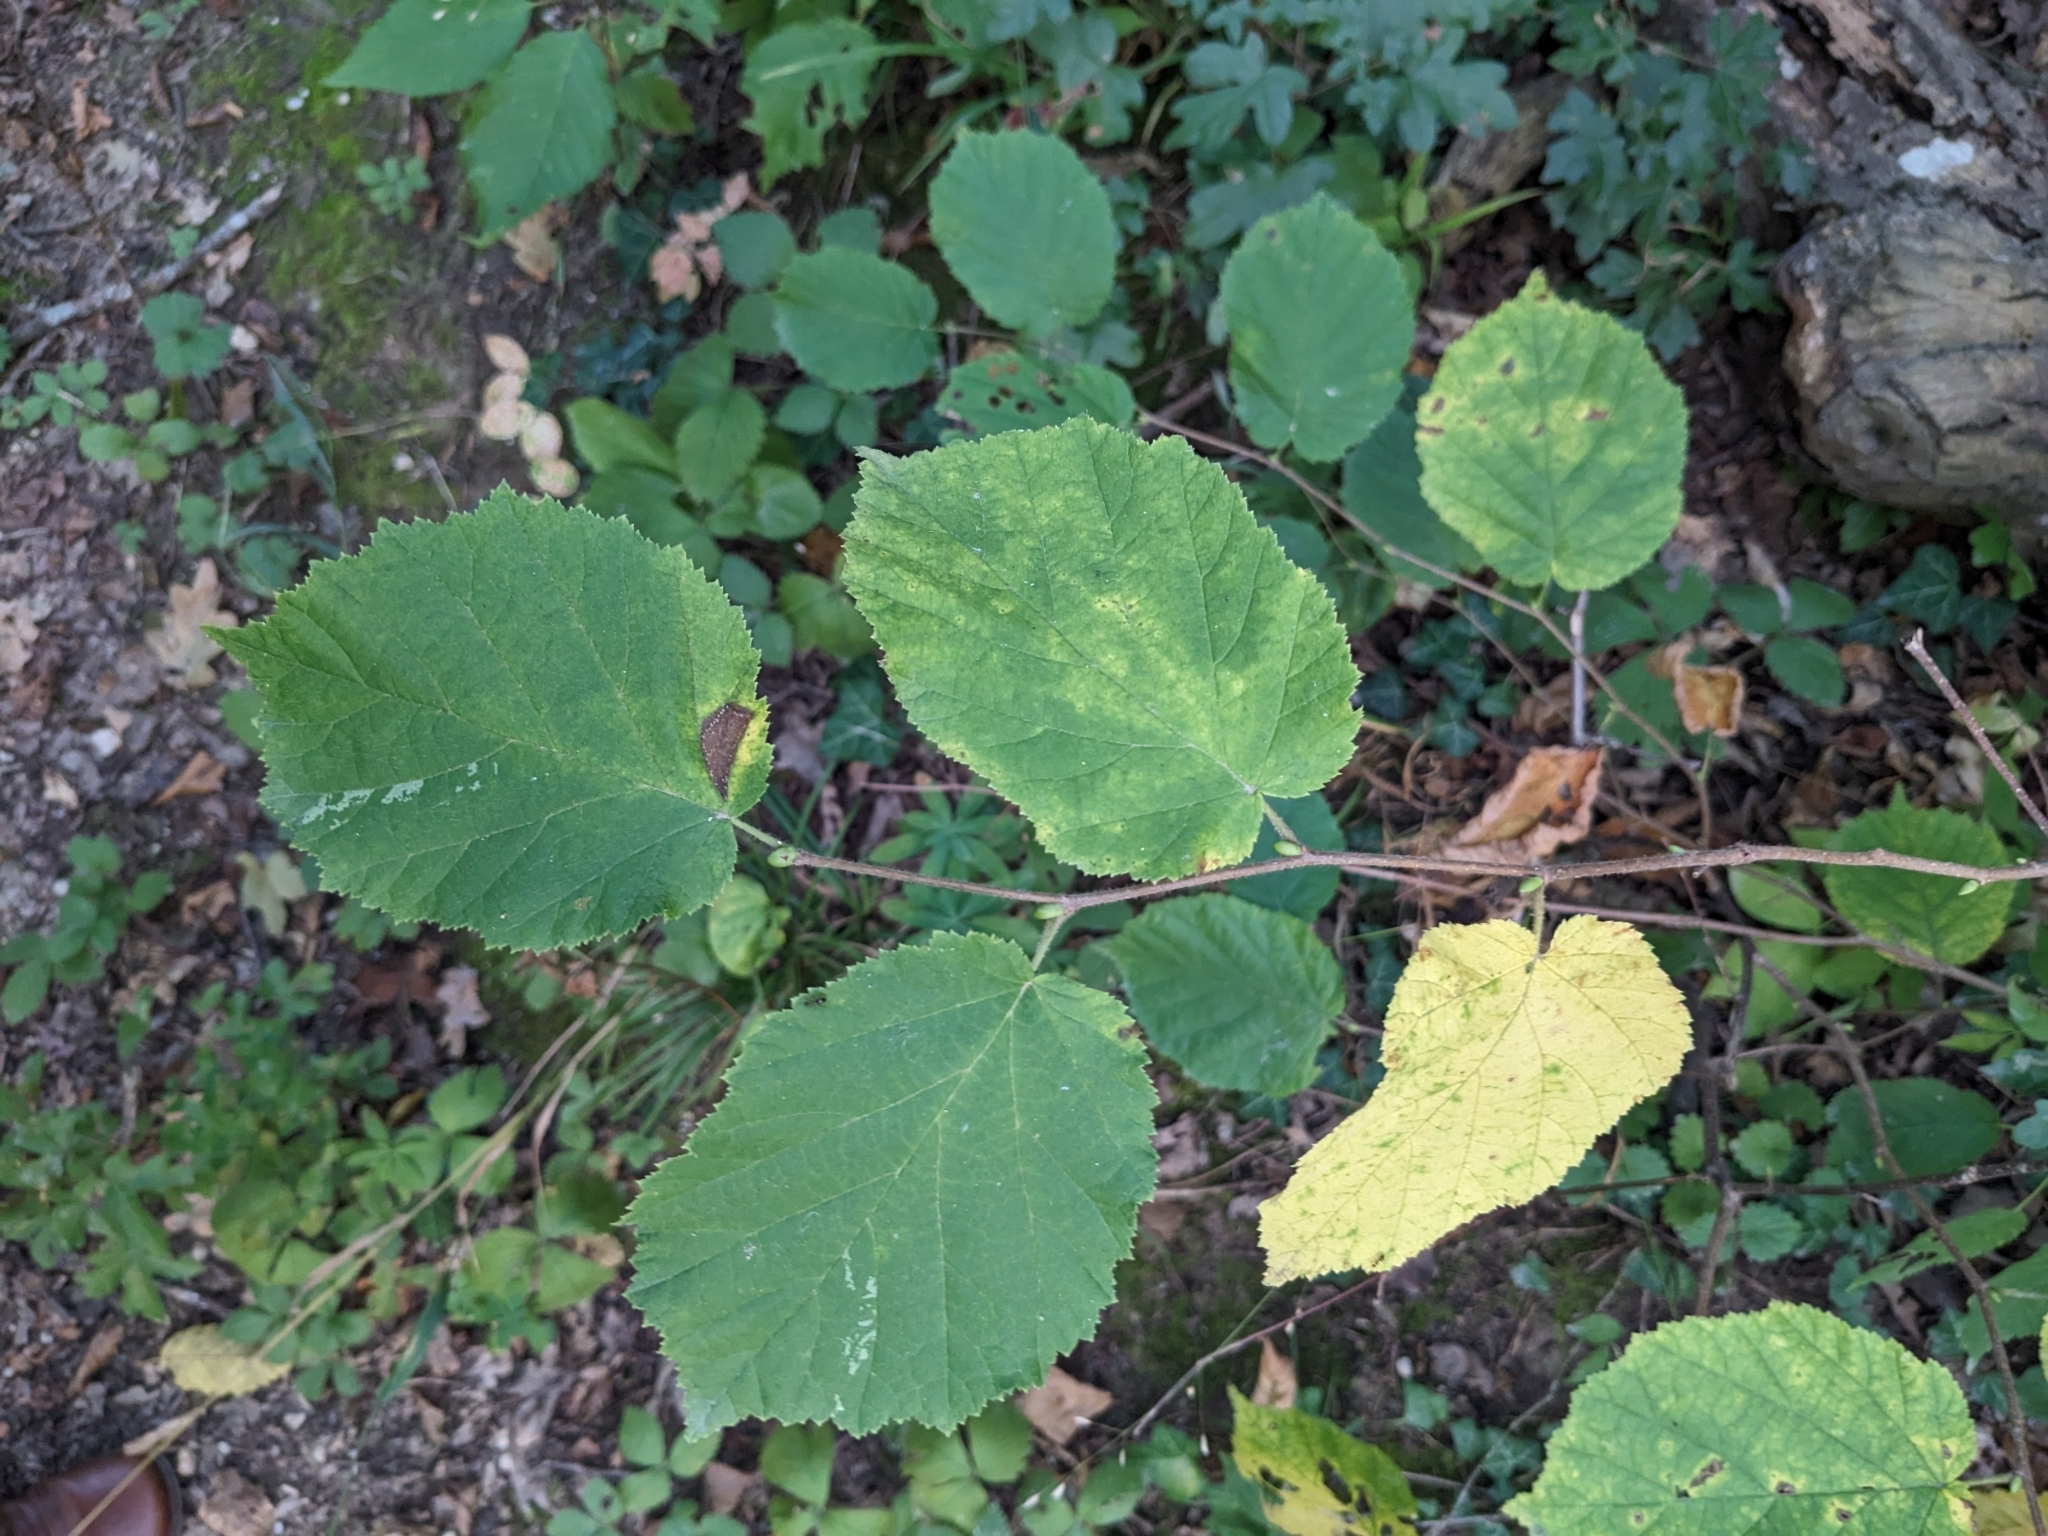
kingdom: Plantae
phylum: Tracheophyta
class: Magnoliopsida
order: Fagales
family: Betulaceae
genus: Corylus
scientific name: Corylus avellana
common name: European hazel
